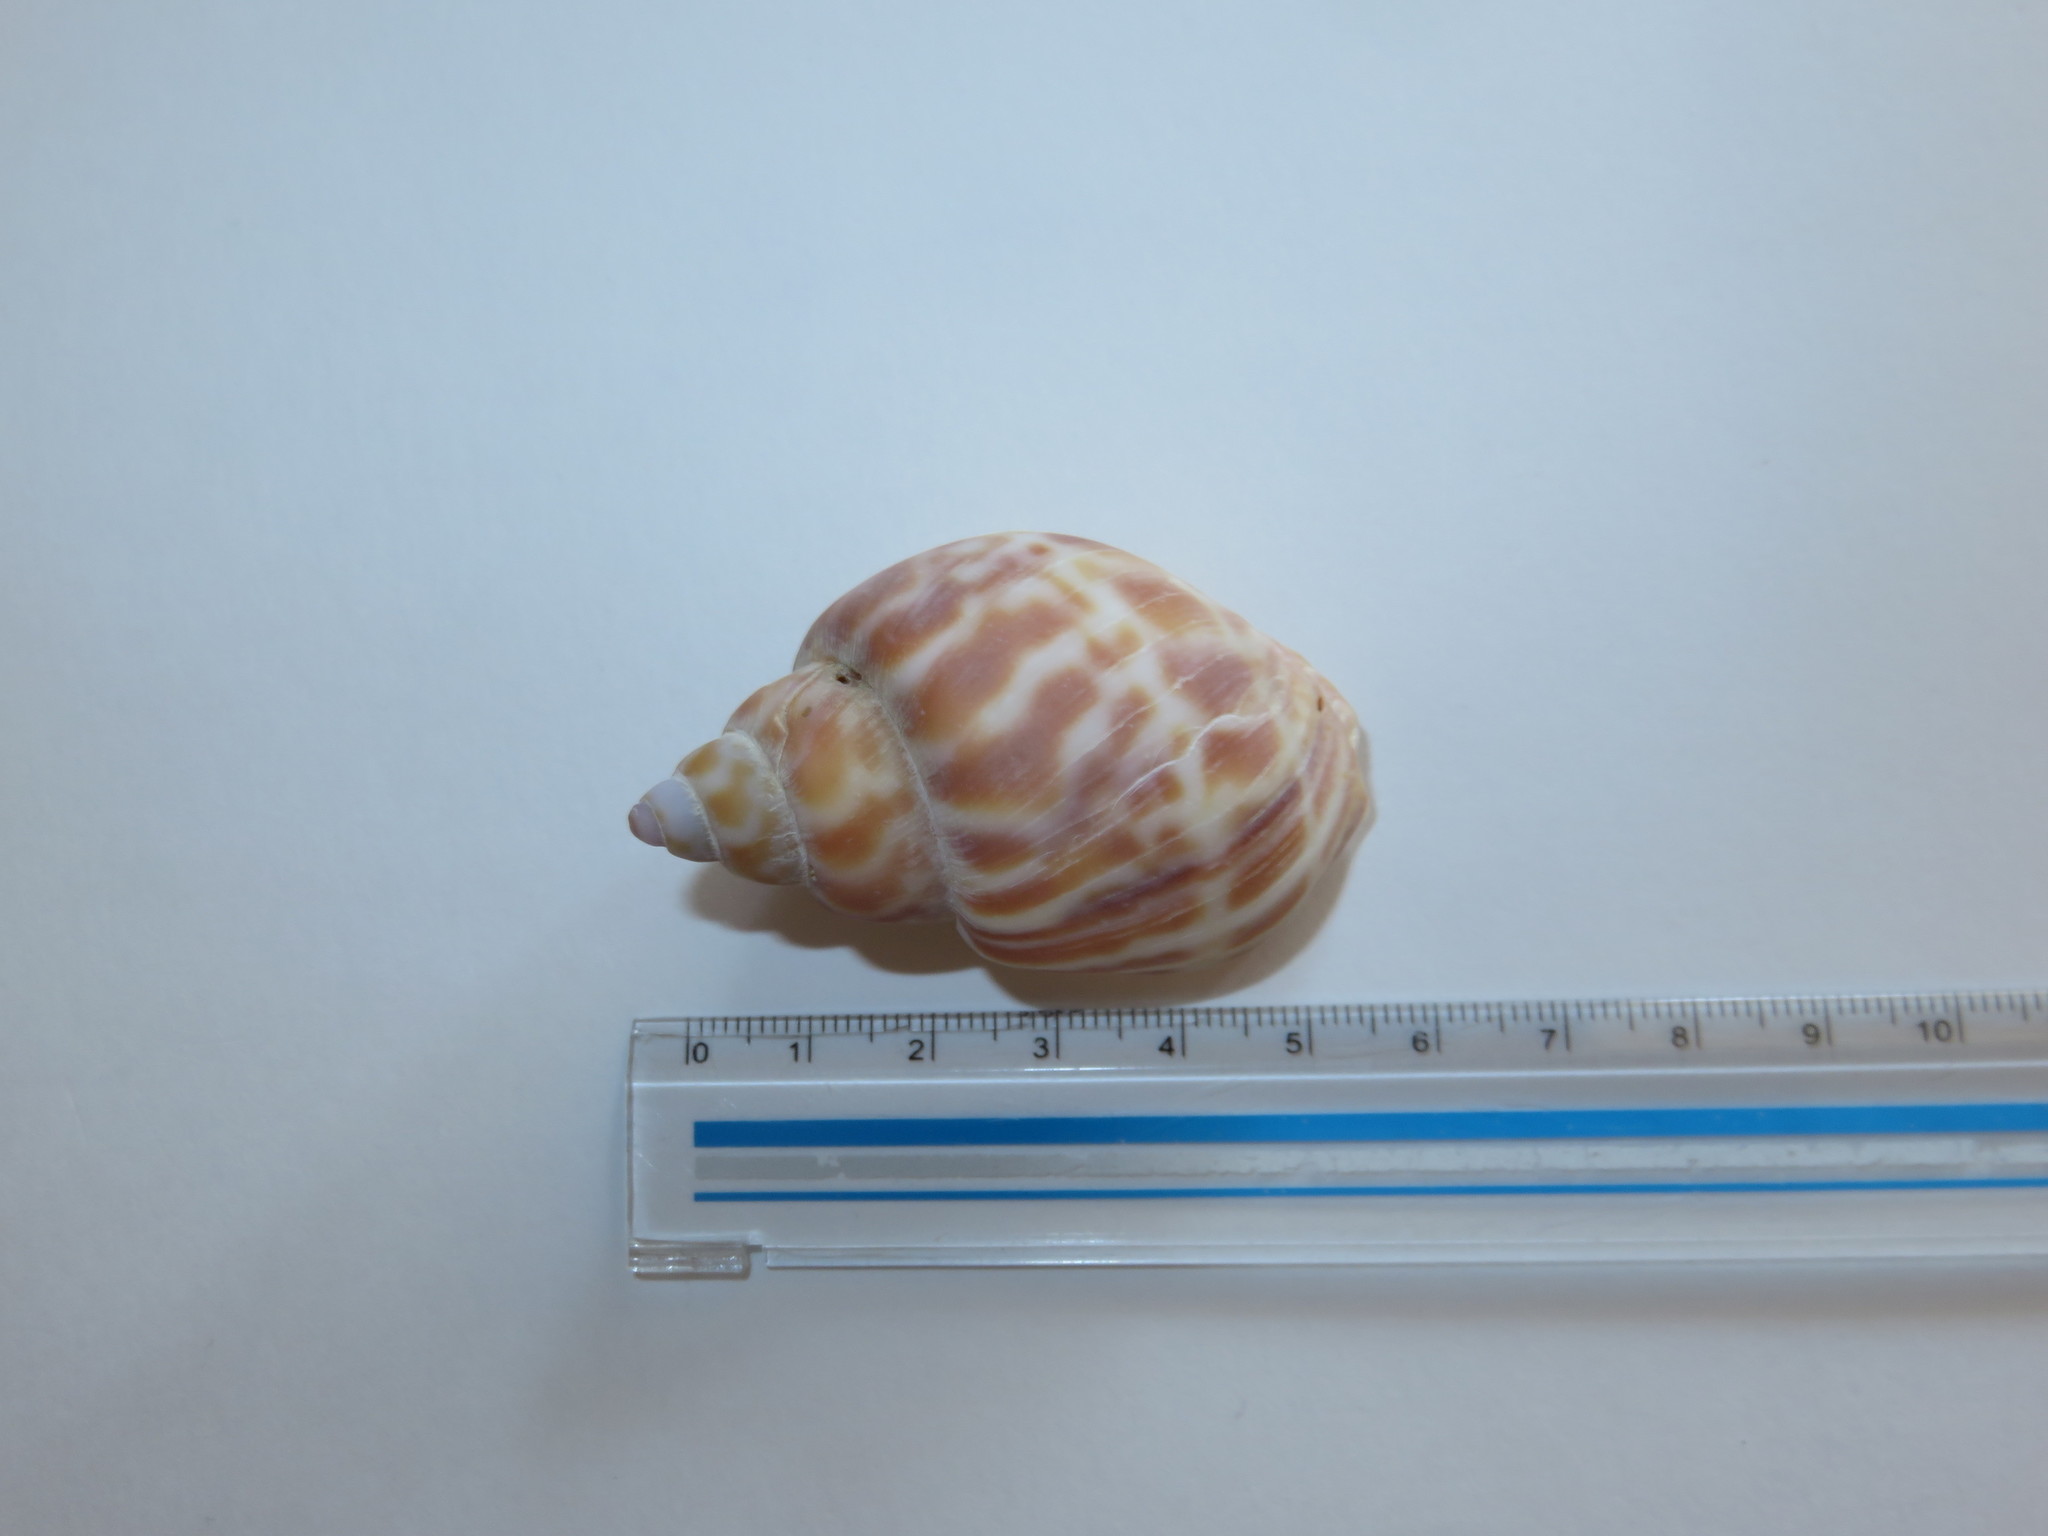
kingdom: Animalia
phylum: Mollusca
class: Gastropoda
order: Neogastropoda
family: Babyloniidae
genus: Babylonia
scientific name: Babylonia japonica
